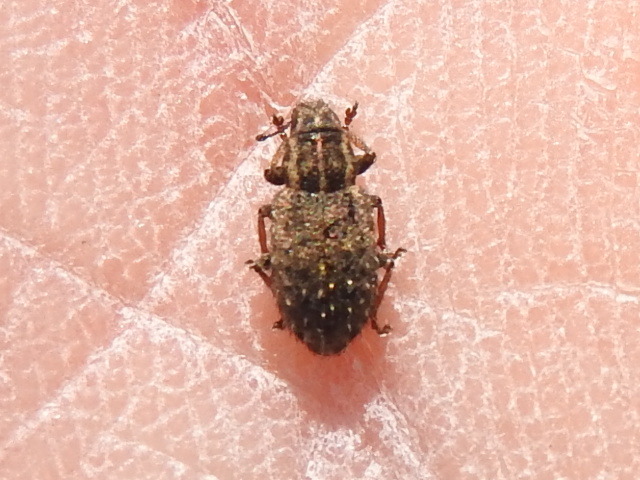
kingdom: Animalia
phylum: Arthropoda
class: Insecta
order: Coleoptera
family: Curculionidae
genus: Sitona
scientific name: Sitona hispidulus
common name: Clover weevil
